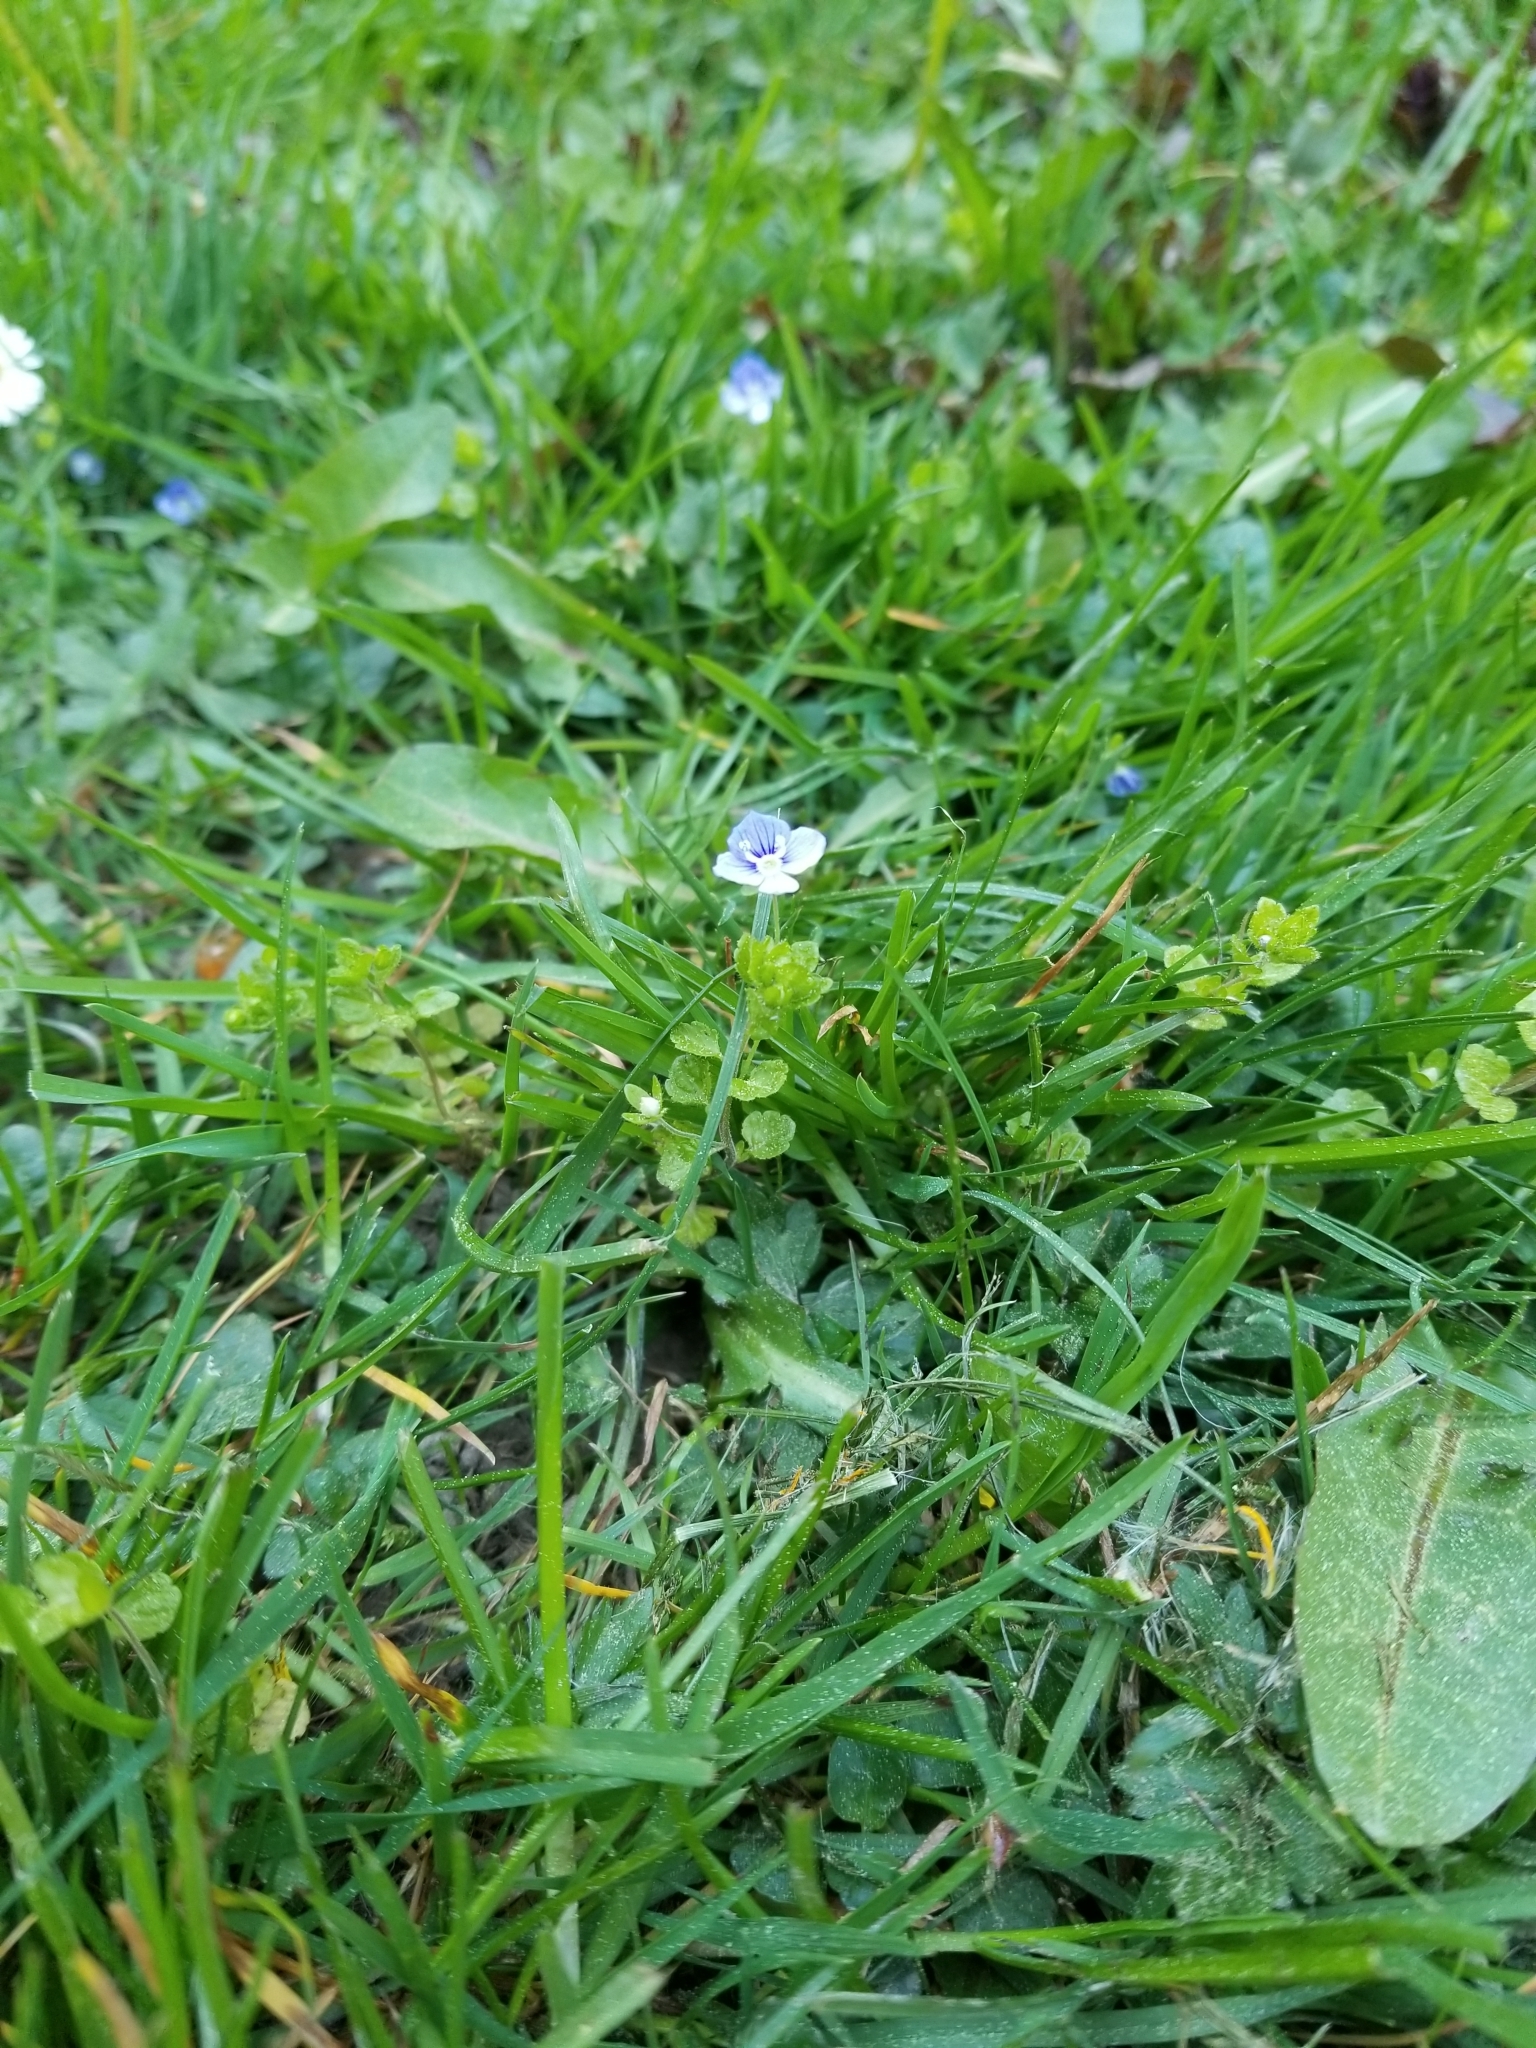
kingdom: Plantae
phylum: Tracheophyta
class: Magnoliopsida
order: Lamiales
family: Plantaginaceae
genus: Veronica
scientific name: Veronica serpyllifolia
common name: Thyme-leaved speedwell
